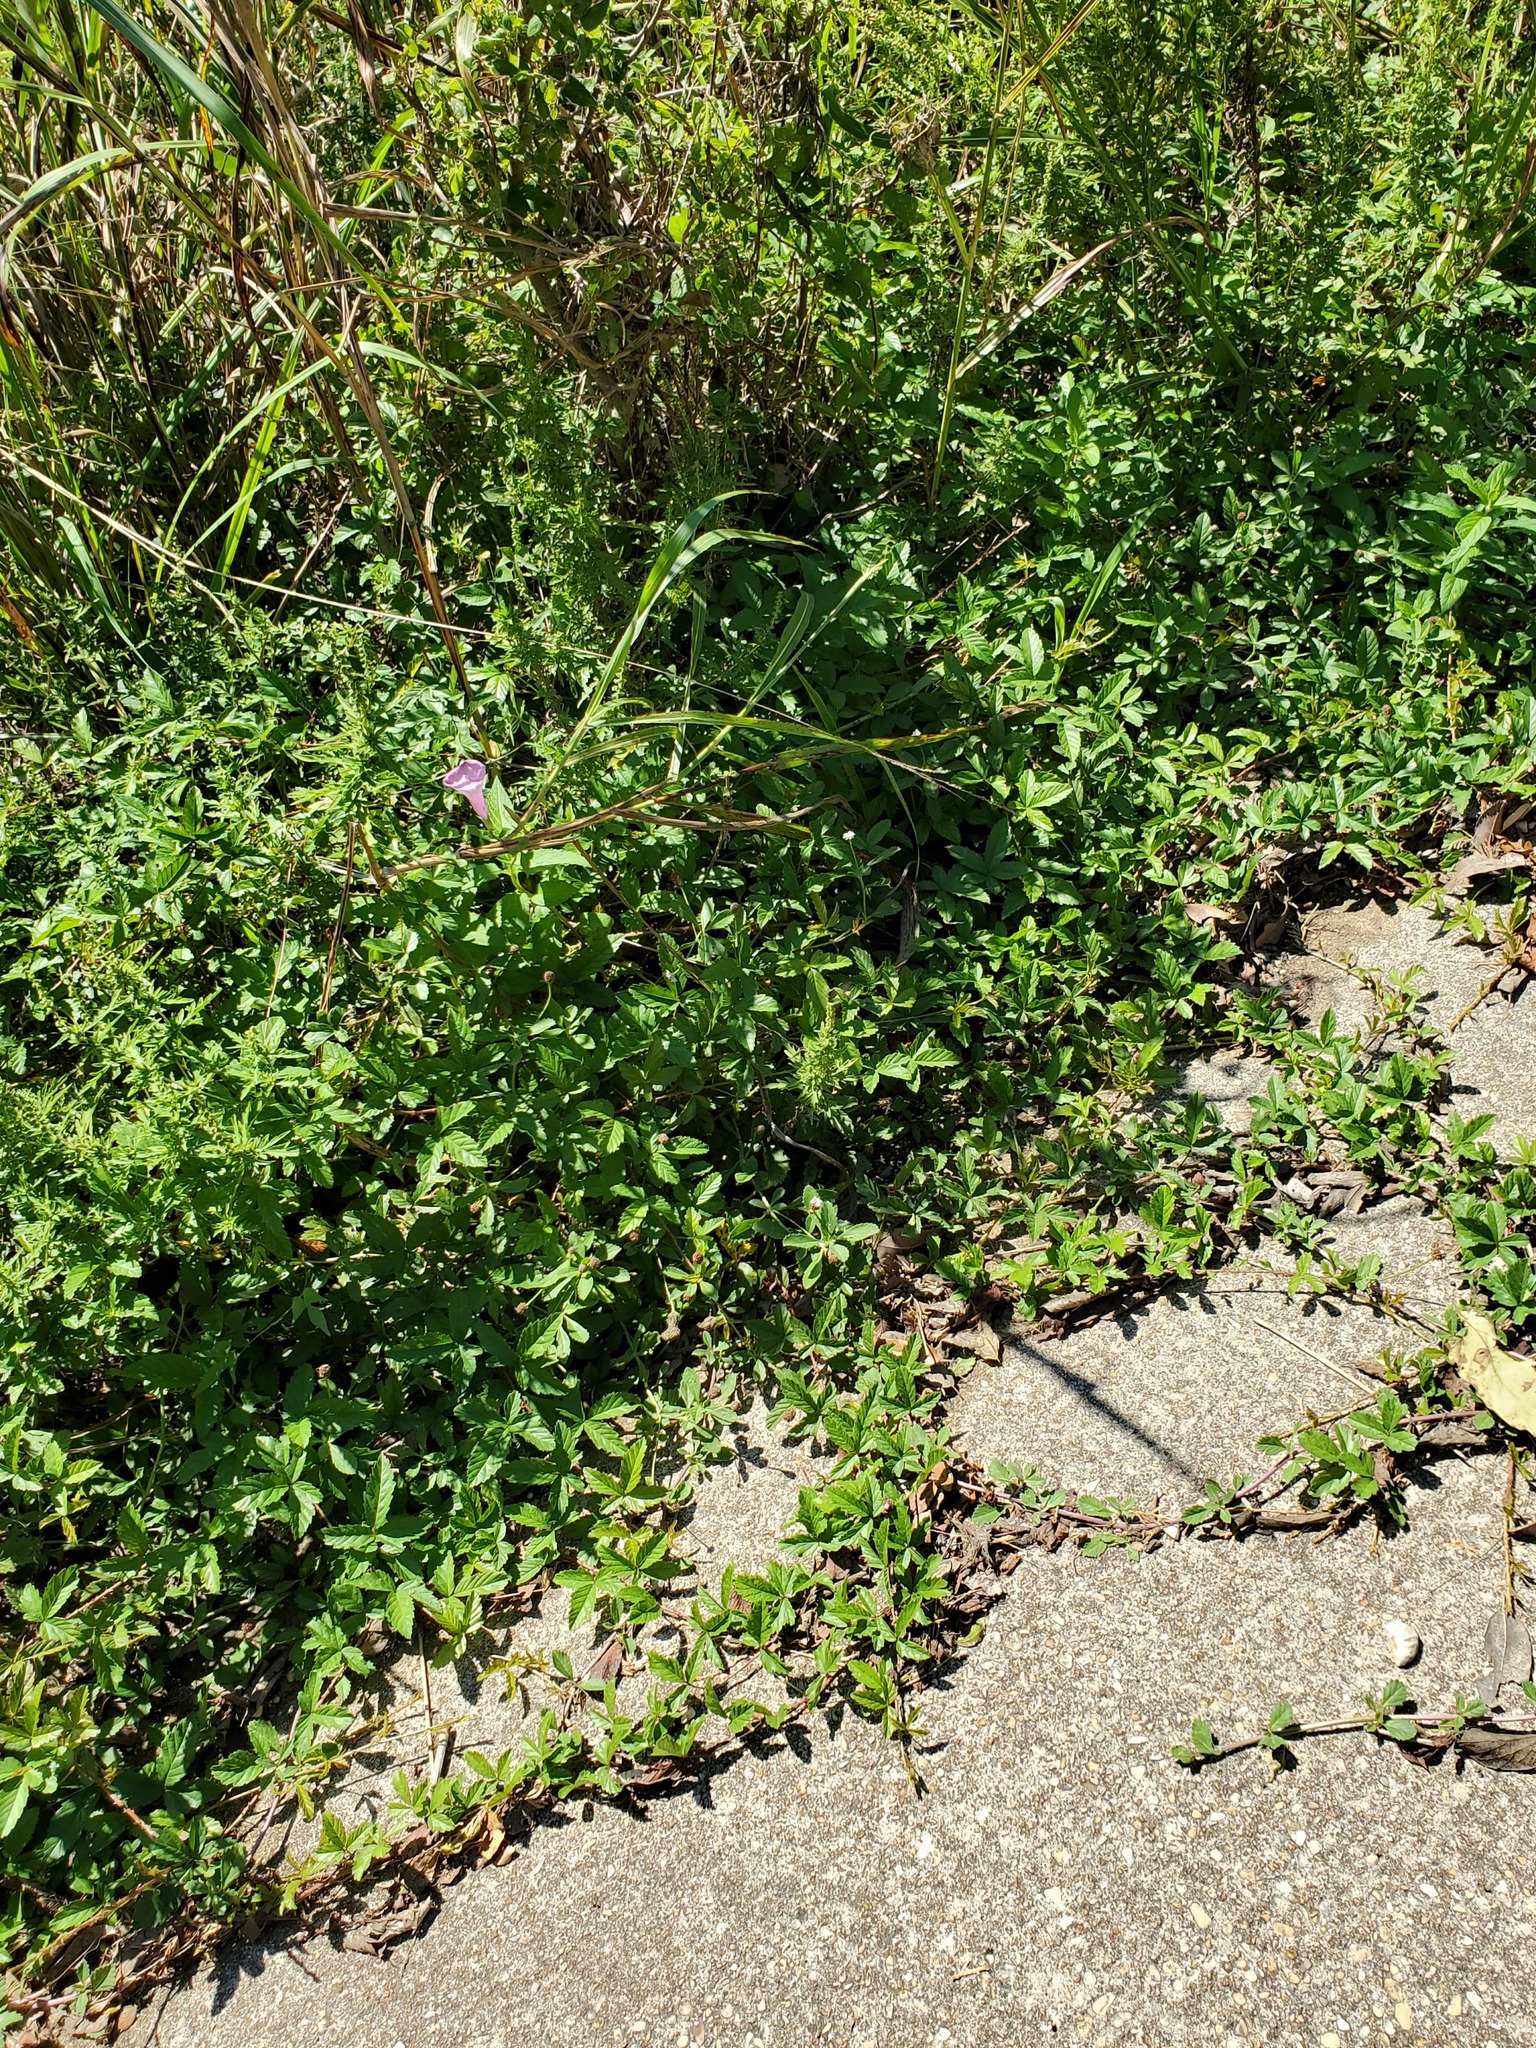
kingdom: Plantae
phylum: Tracheophyta
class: Magnoliopsida
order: Rosales
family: Rosaceae
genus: Rubus
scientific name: Rubus trivialis
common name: Southern dewberry
